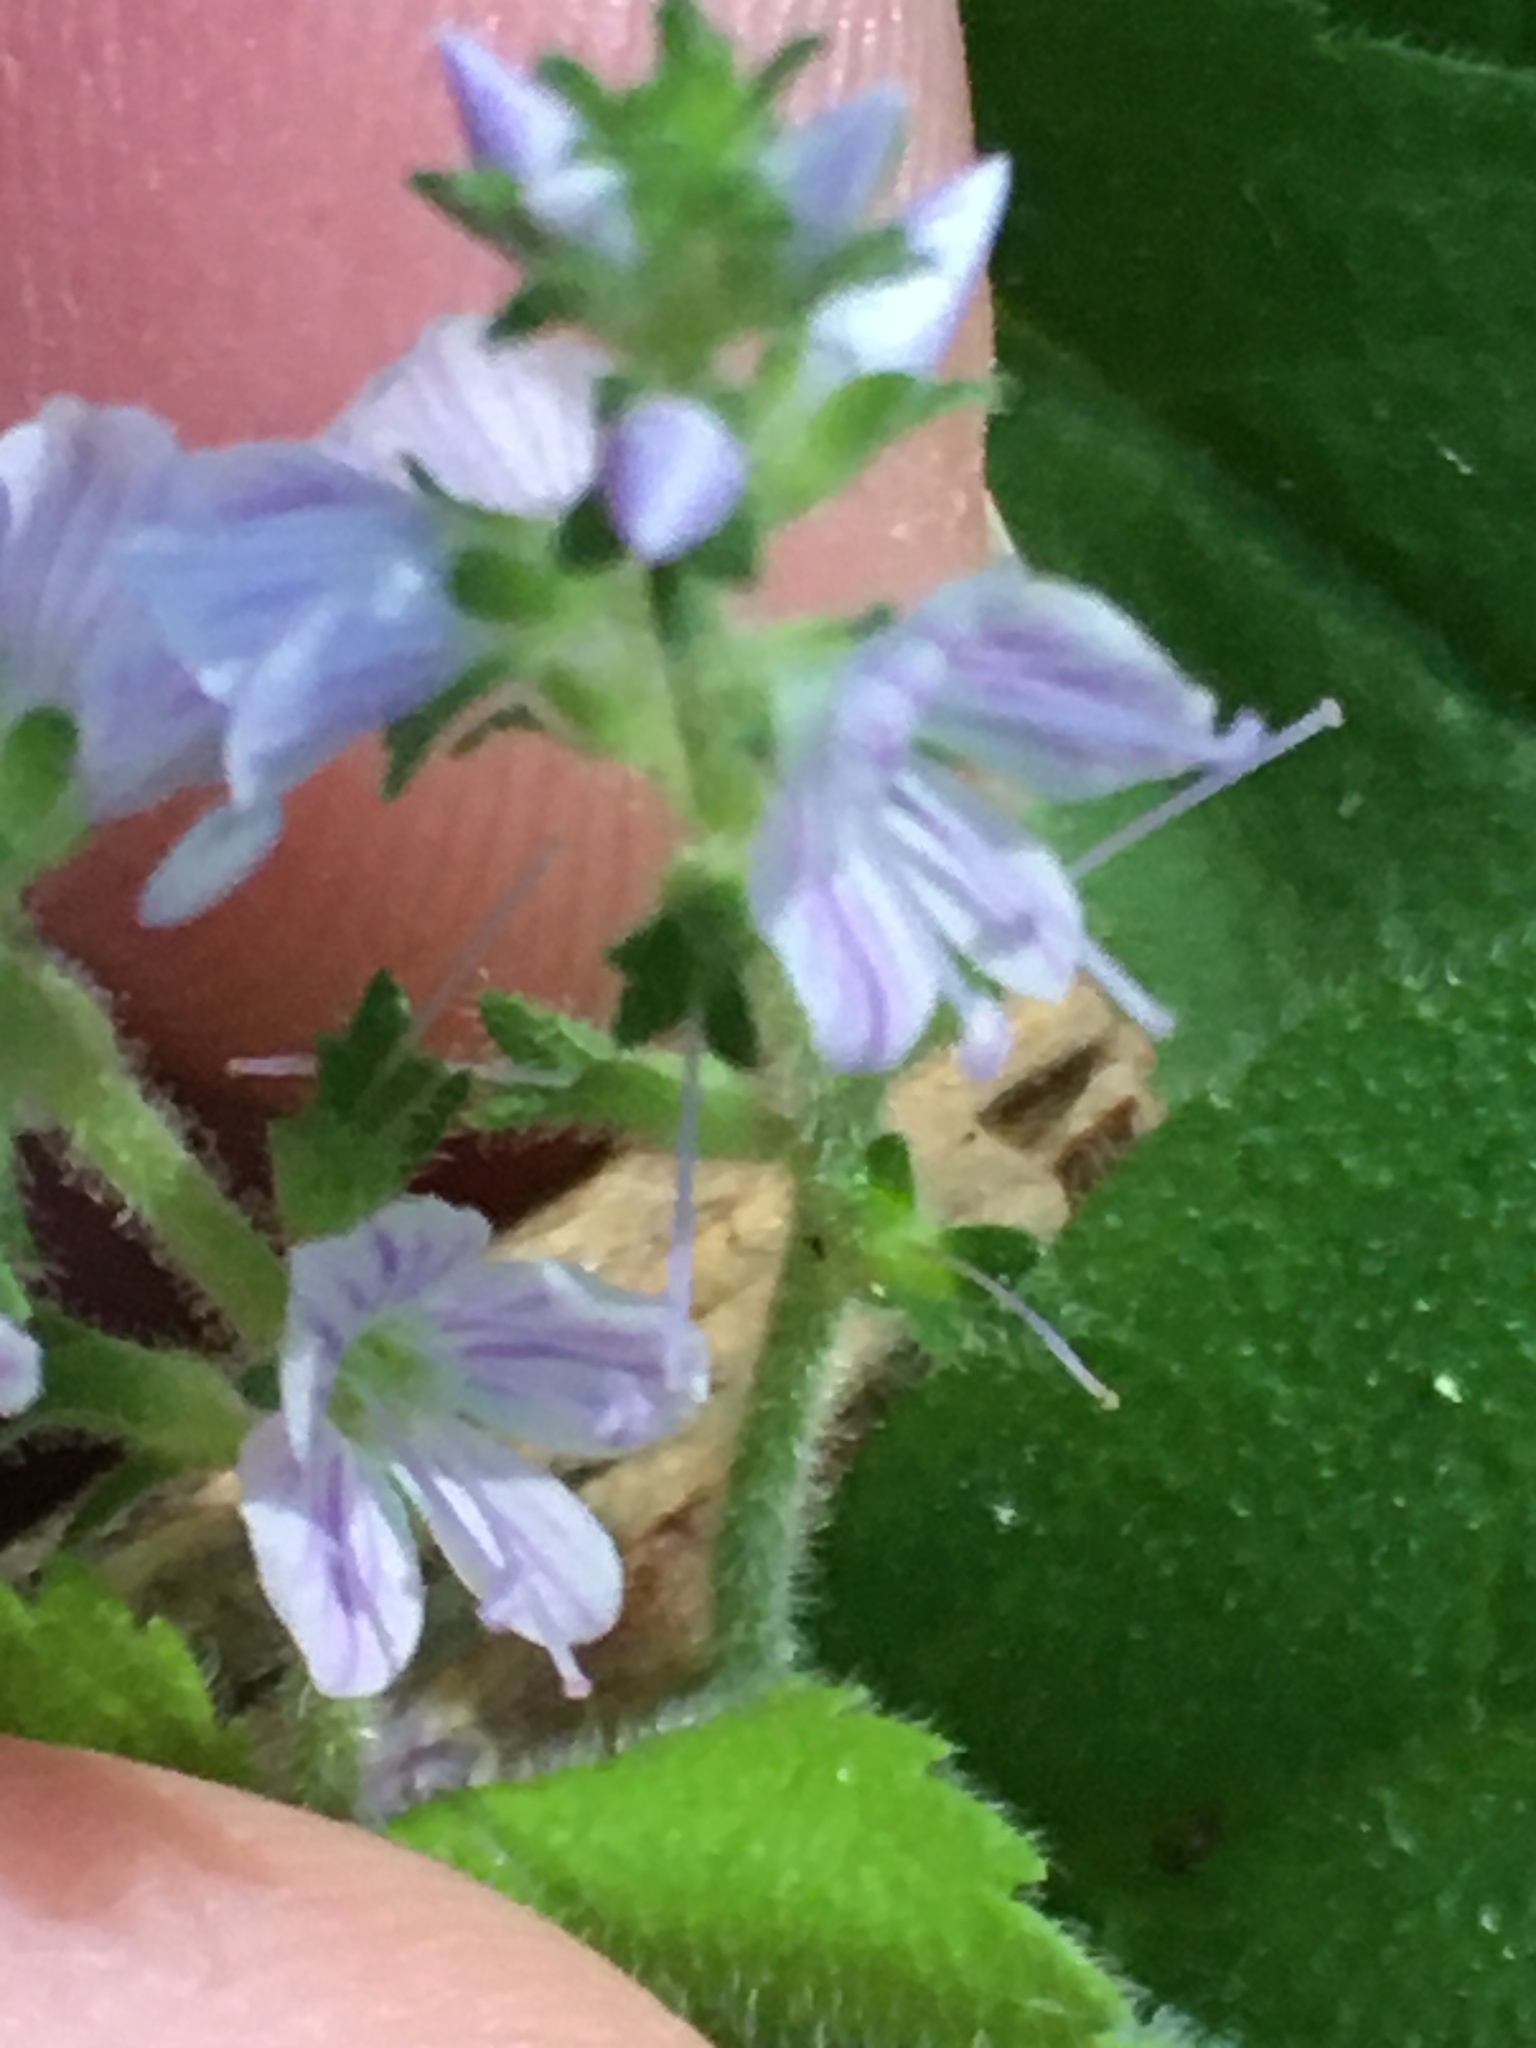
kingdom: Plantae
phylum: Tracheophyta
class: Magnoliopsida
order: Lamiales
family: Plantaginaceae
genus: Veronica
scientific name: Veronica officinalis
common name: Common speedwell
